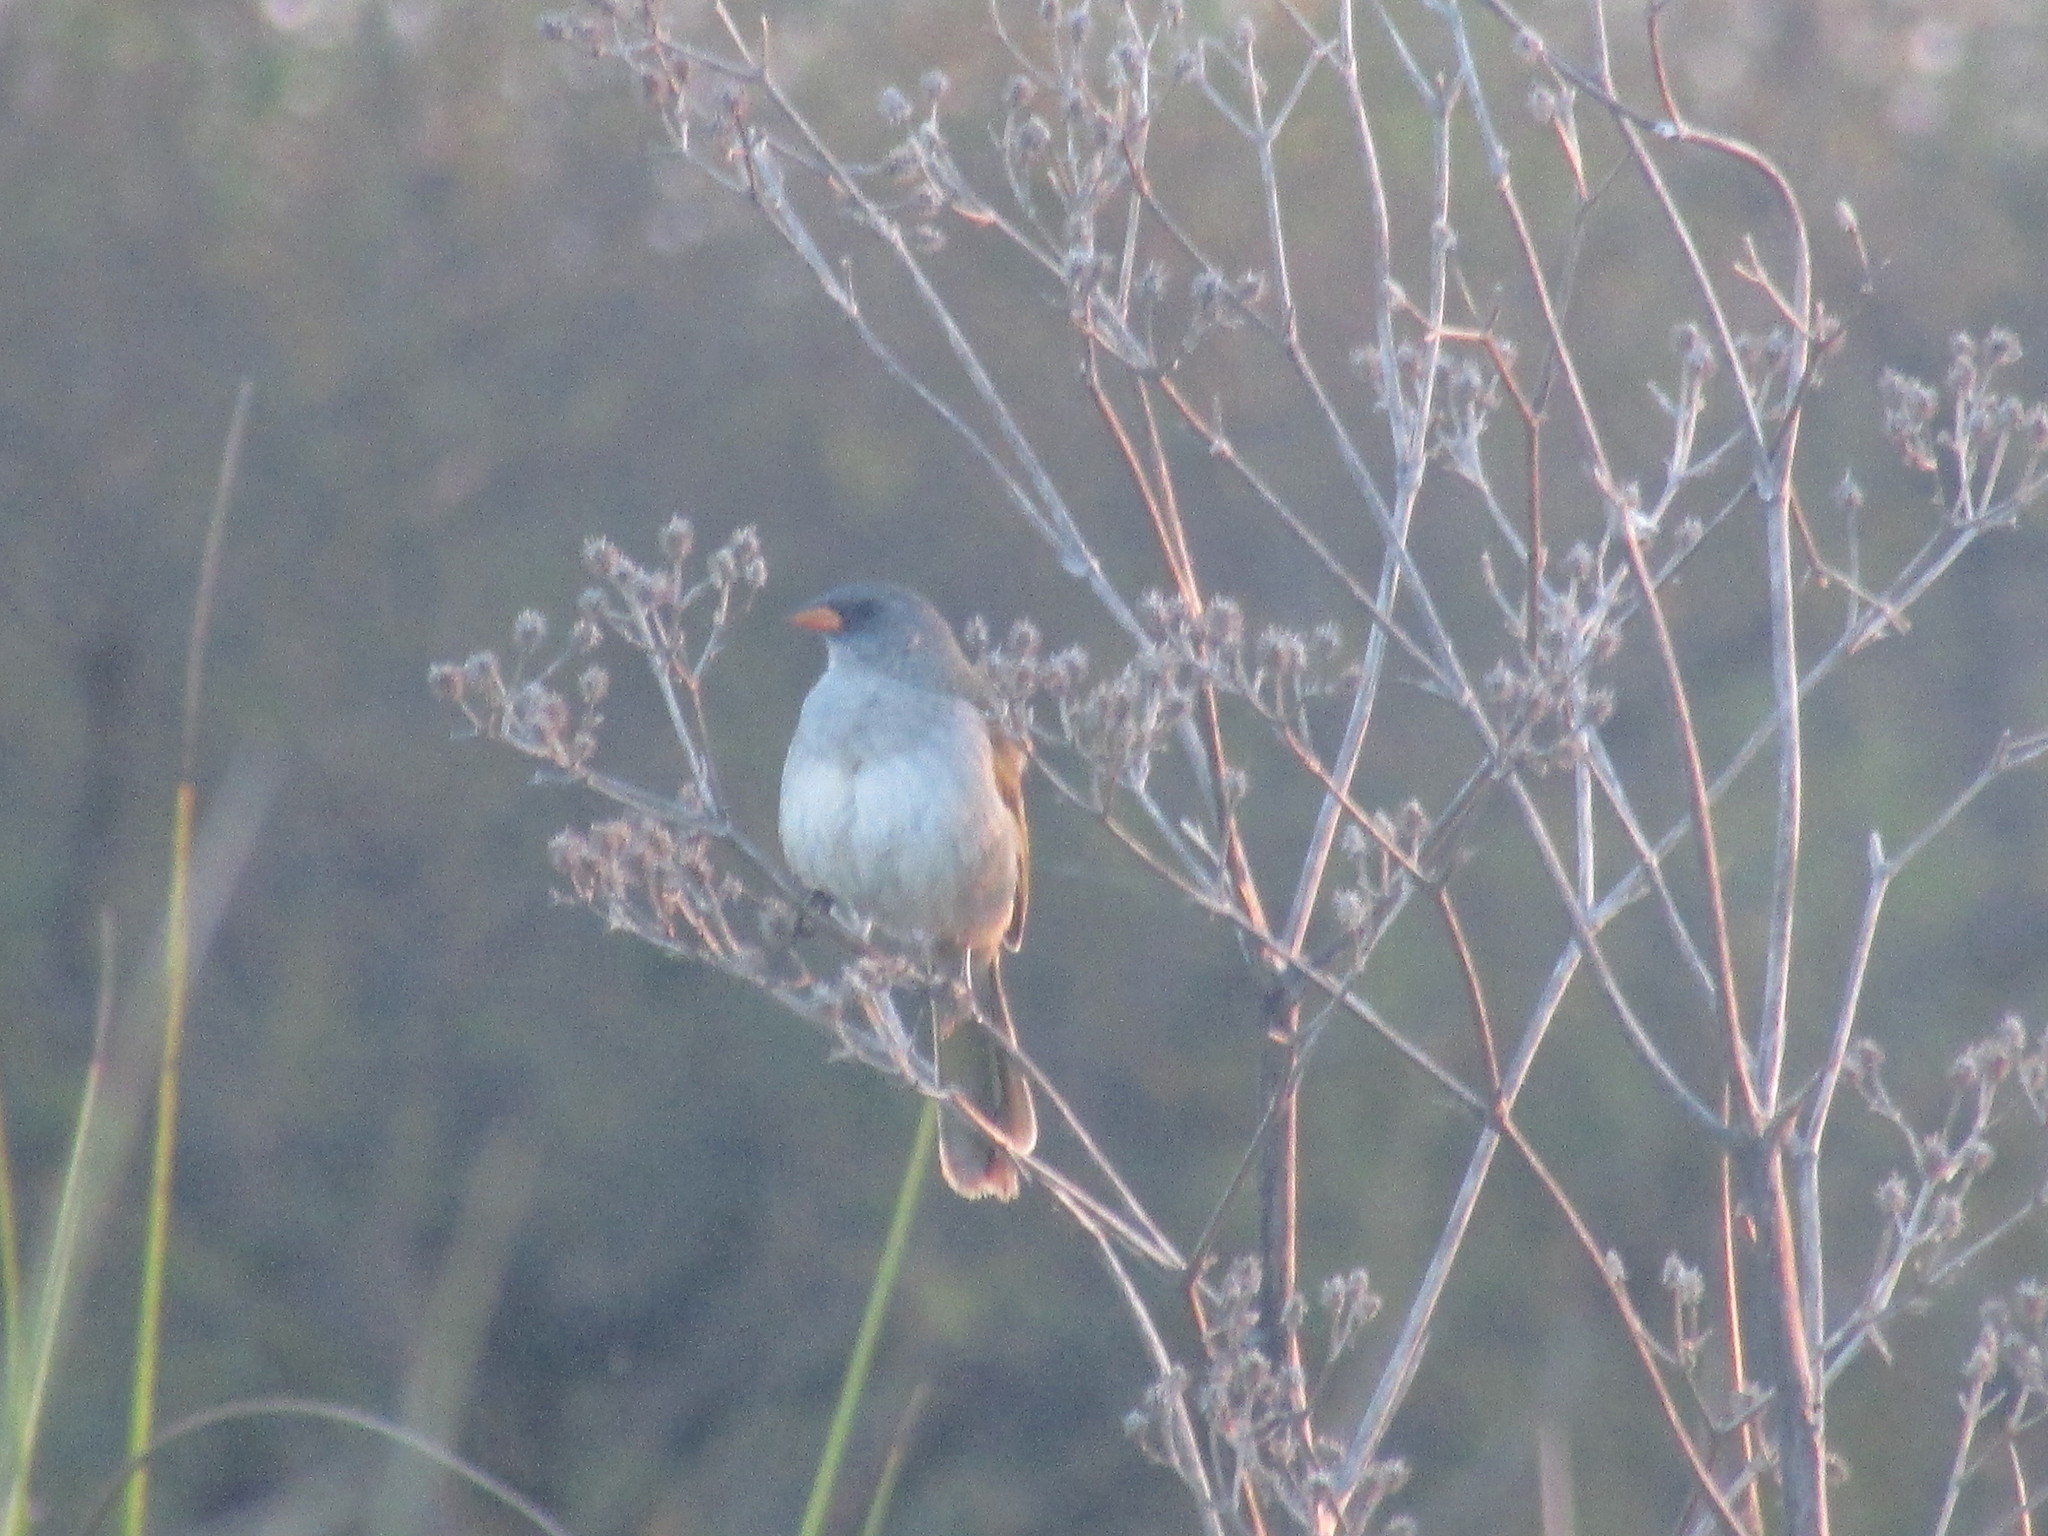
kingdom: Animalia
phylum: Chordata
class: Aves
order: Passeriformes
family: Thraupidae
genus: Embernagra
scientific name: Embernagra platensis
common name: Pampa finch
